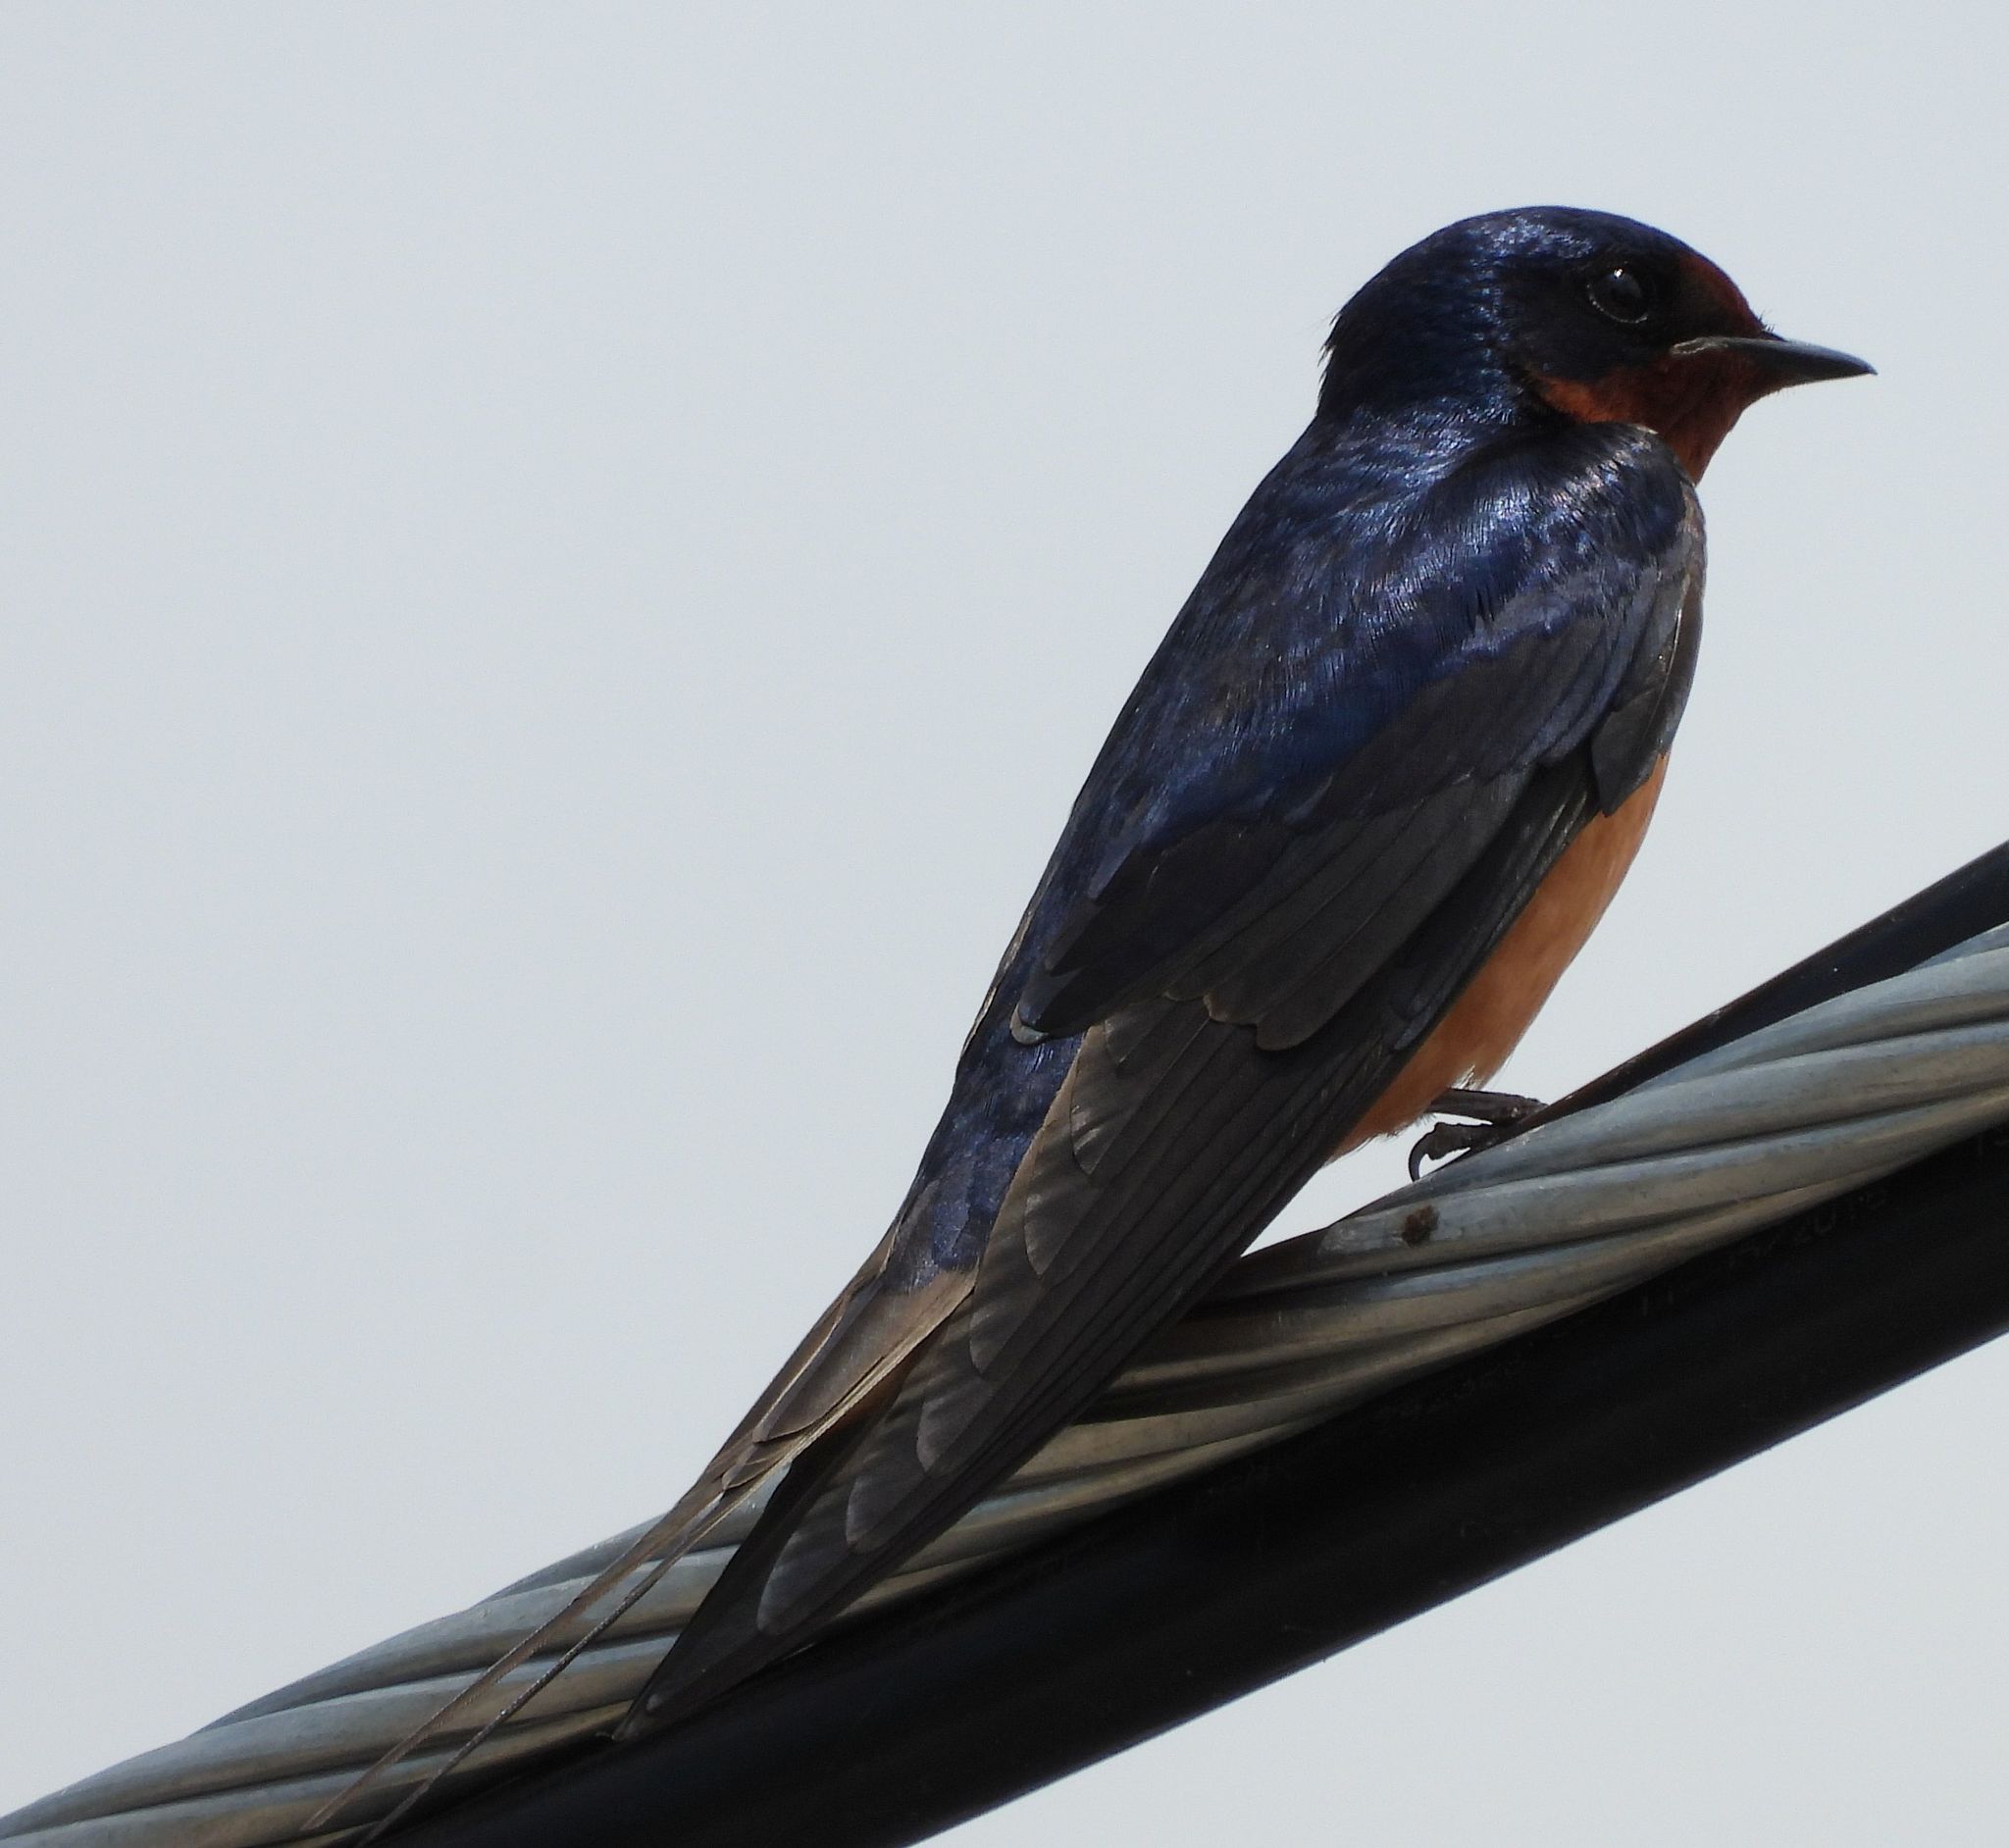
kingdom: Animalia
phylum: Chordata
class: Aves
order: Passeriformes
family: Hirundinidae
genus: Hirundo
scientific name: Hirundo rustica
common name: Barn swallow
